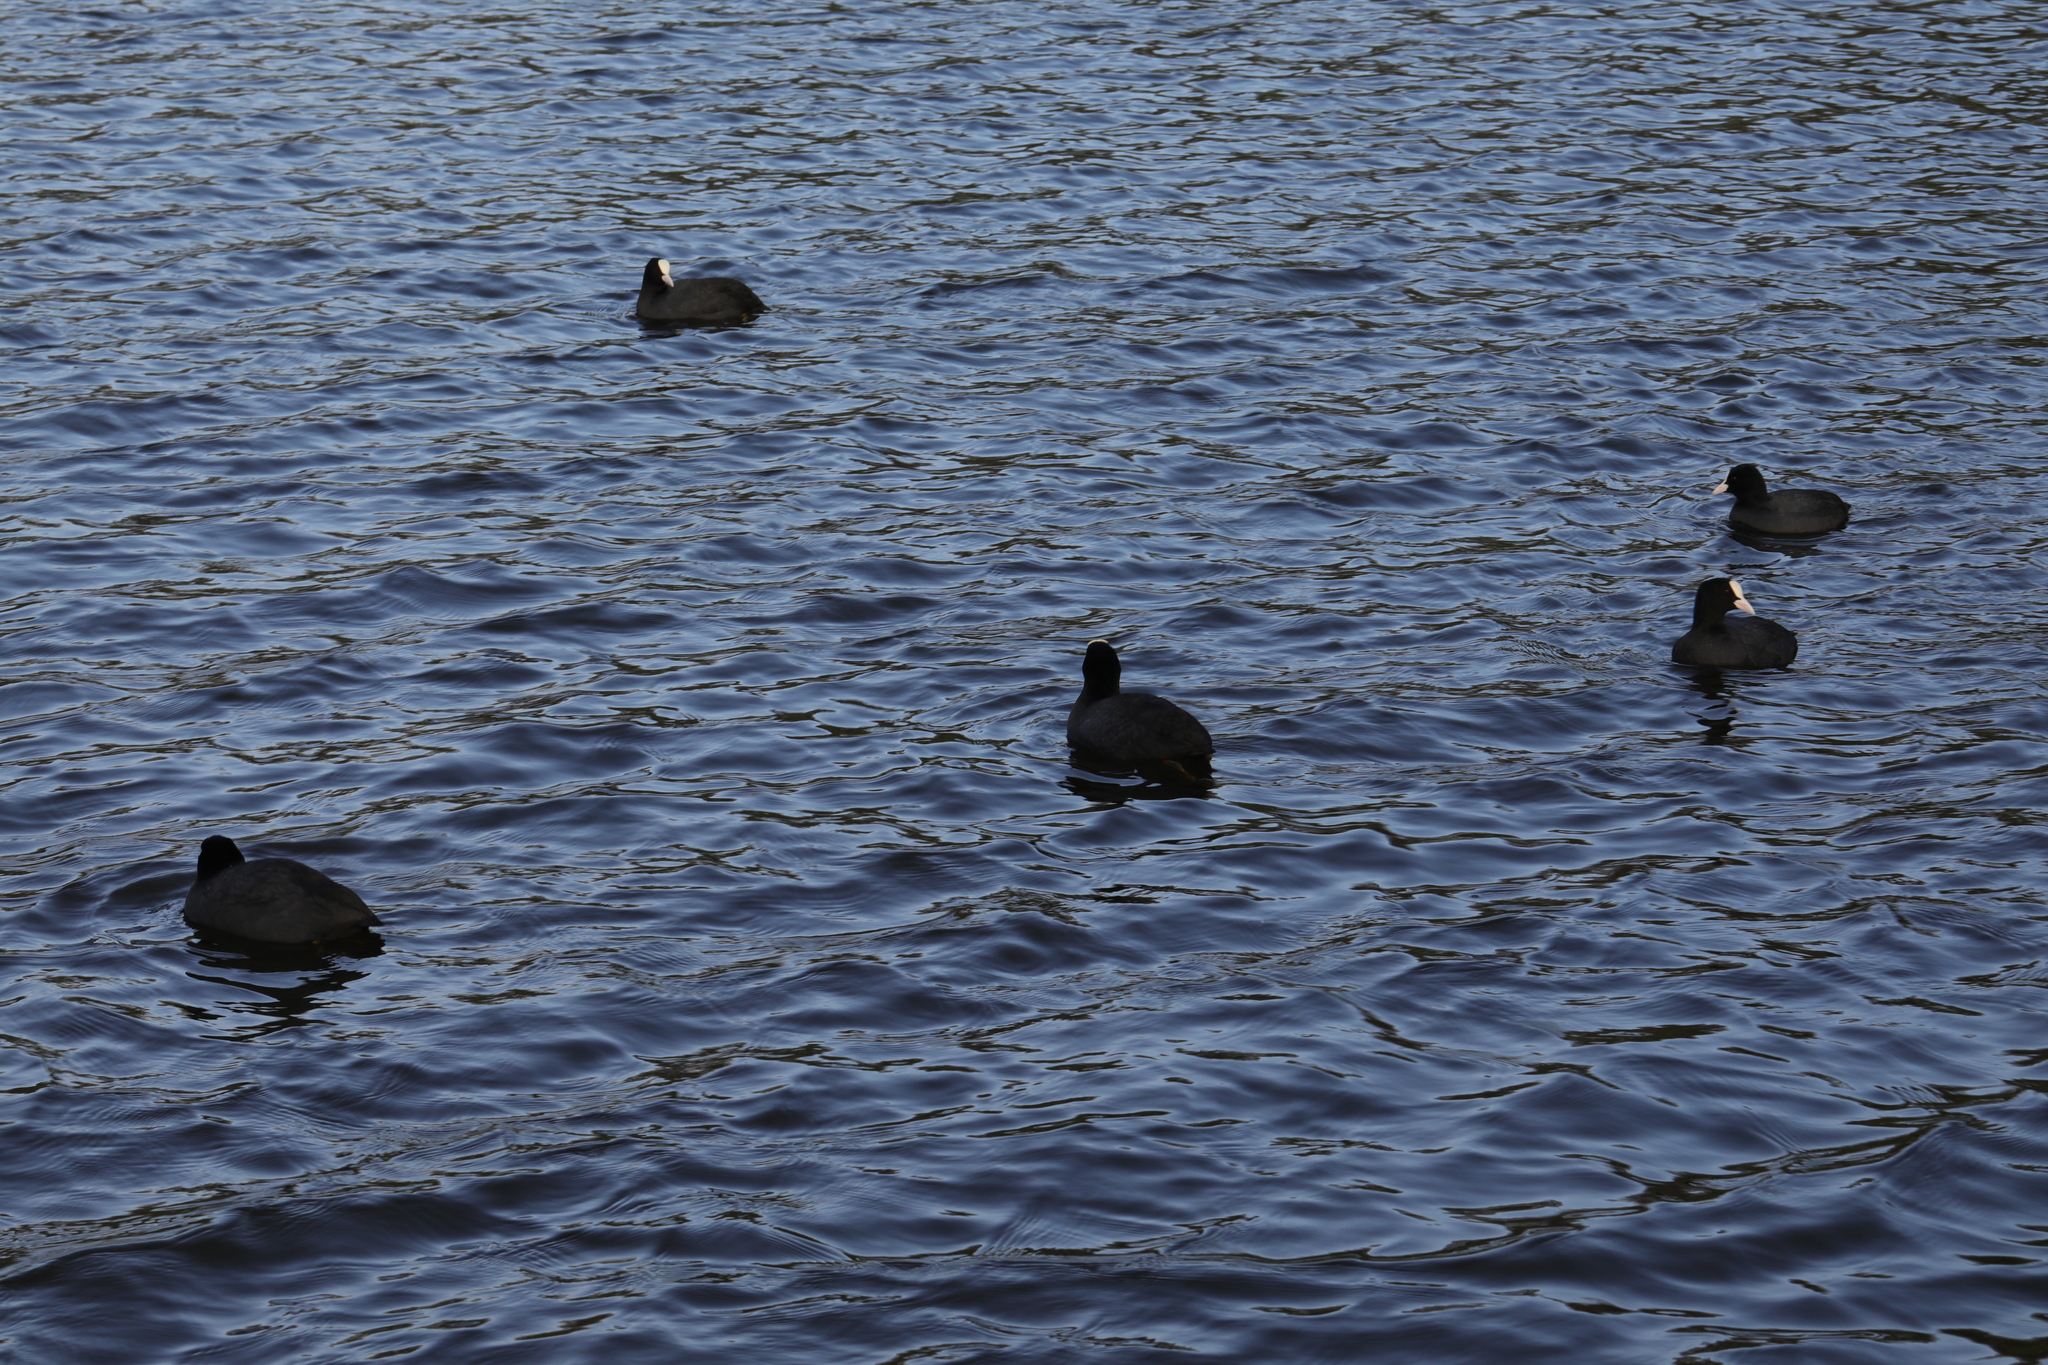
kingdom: Animalia
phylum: Chordata
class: Aves
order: Gruiformes
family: Rallidae
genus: Fulica
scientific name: Fulica atra
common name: Eurasian coot
